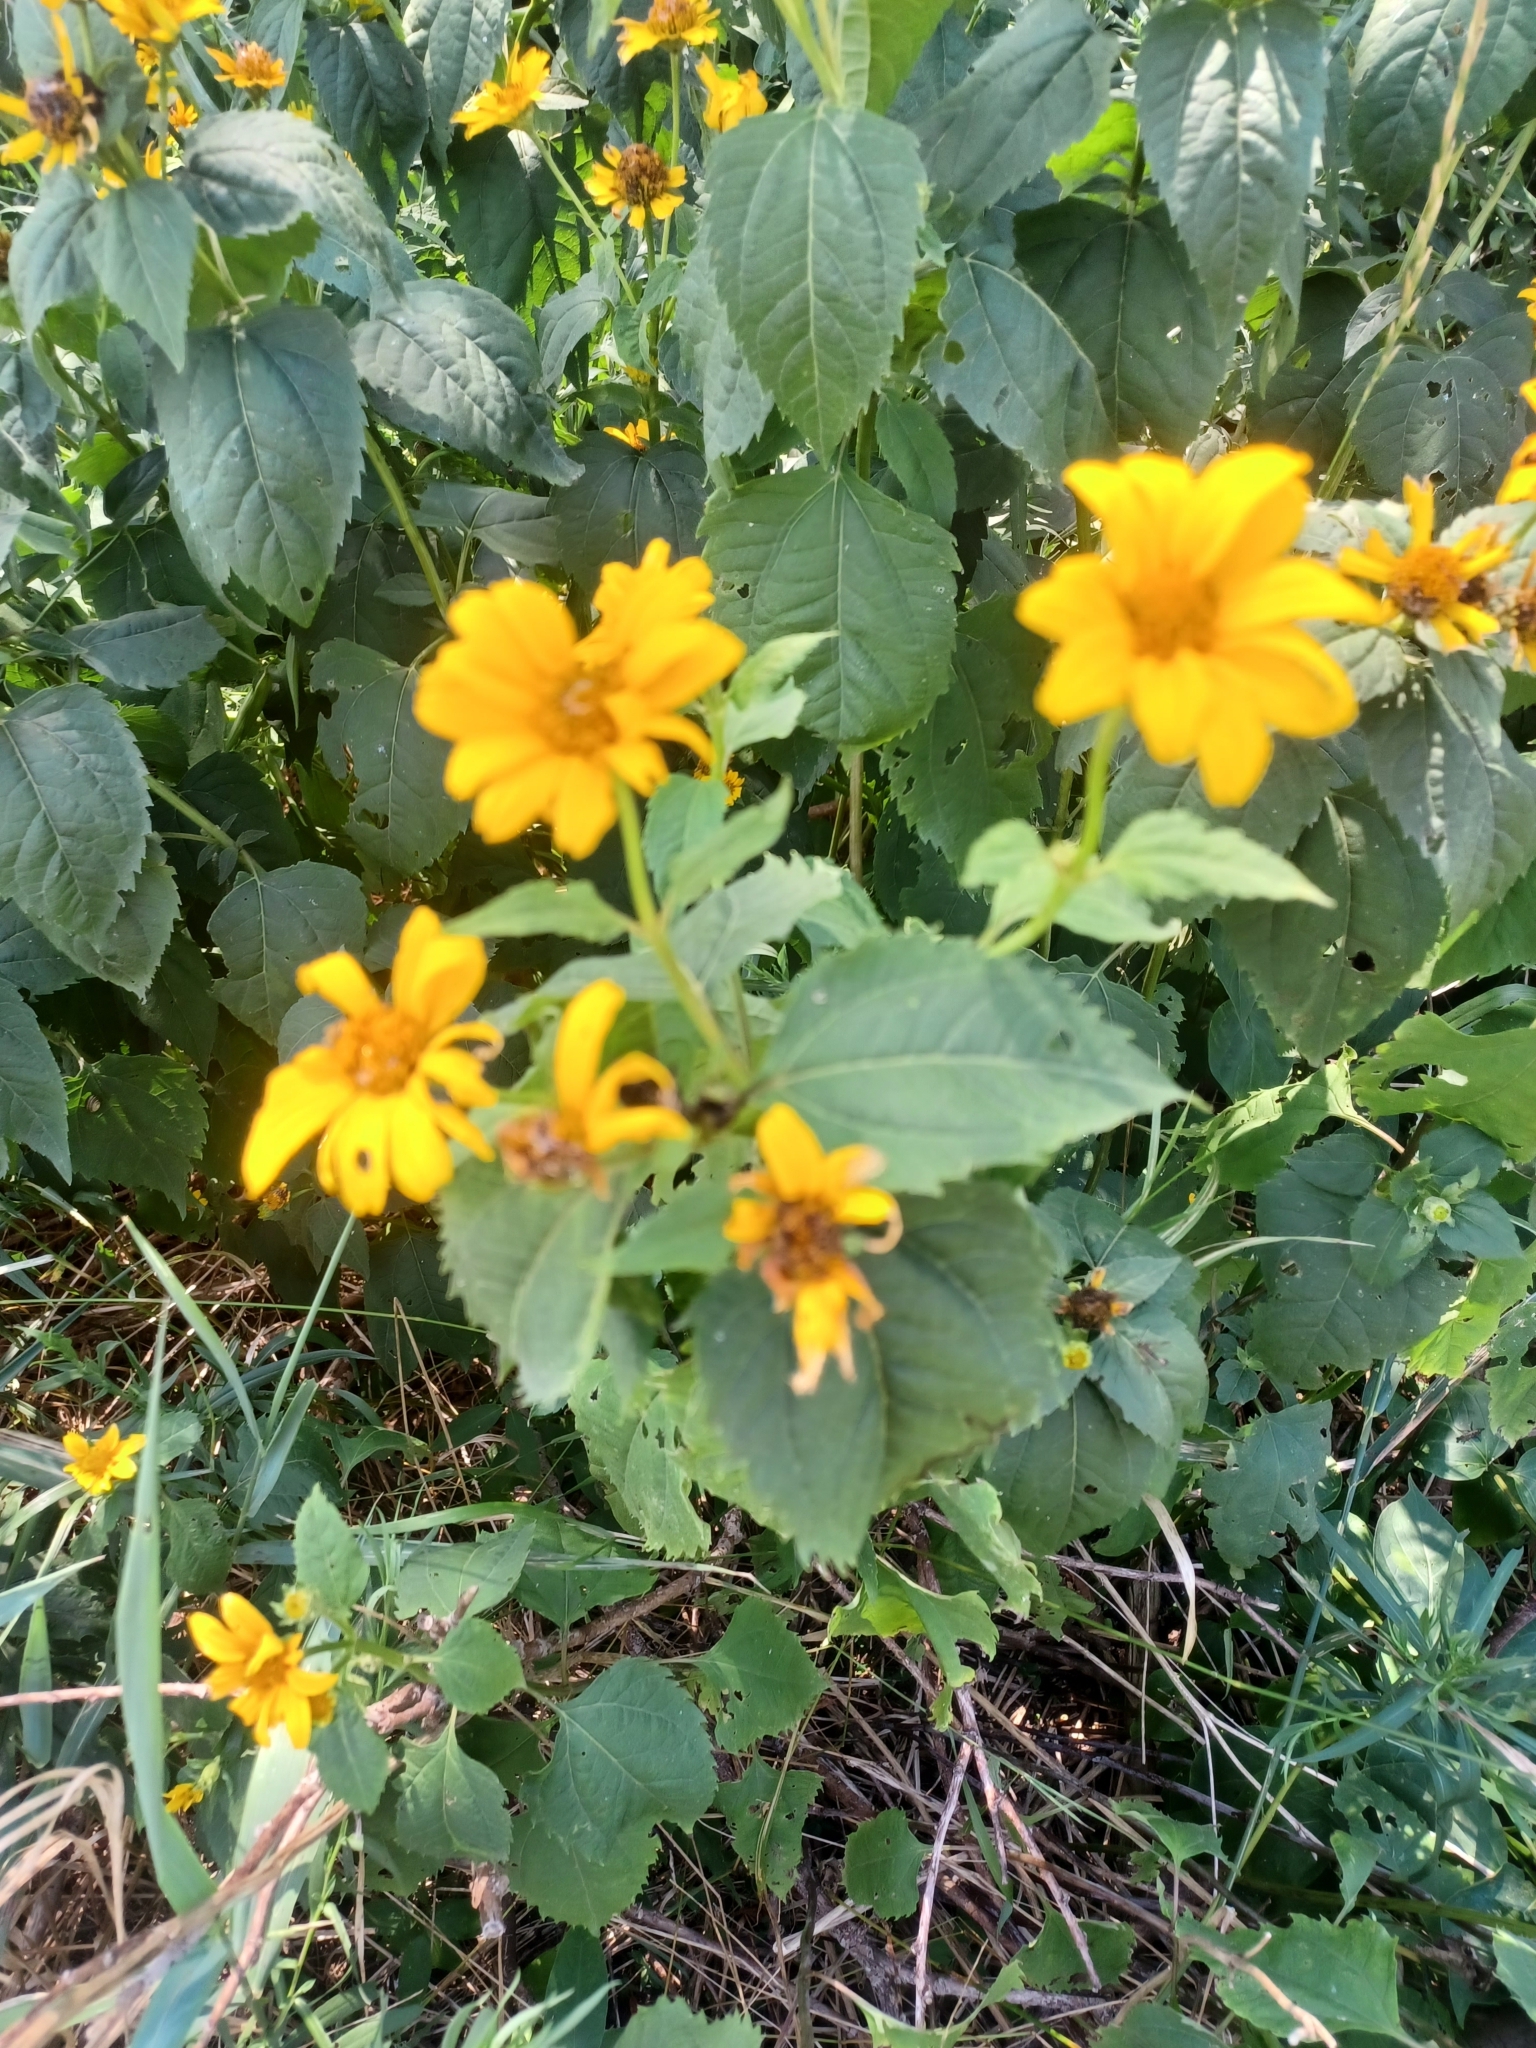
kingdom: Plantae
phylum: Tracheophyta
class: Magnoliopsida
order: Asterales
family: Asteraceae
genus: Heliopsis
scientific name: Heliopsis helianthoides
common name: False sunflower
